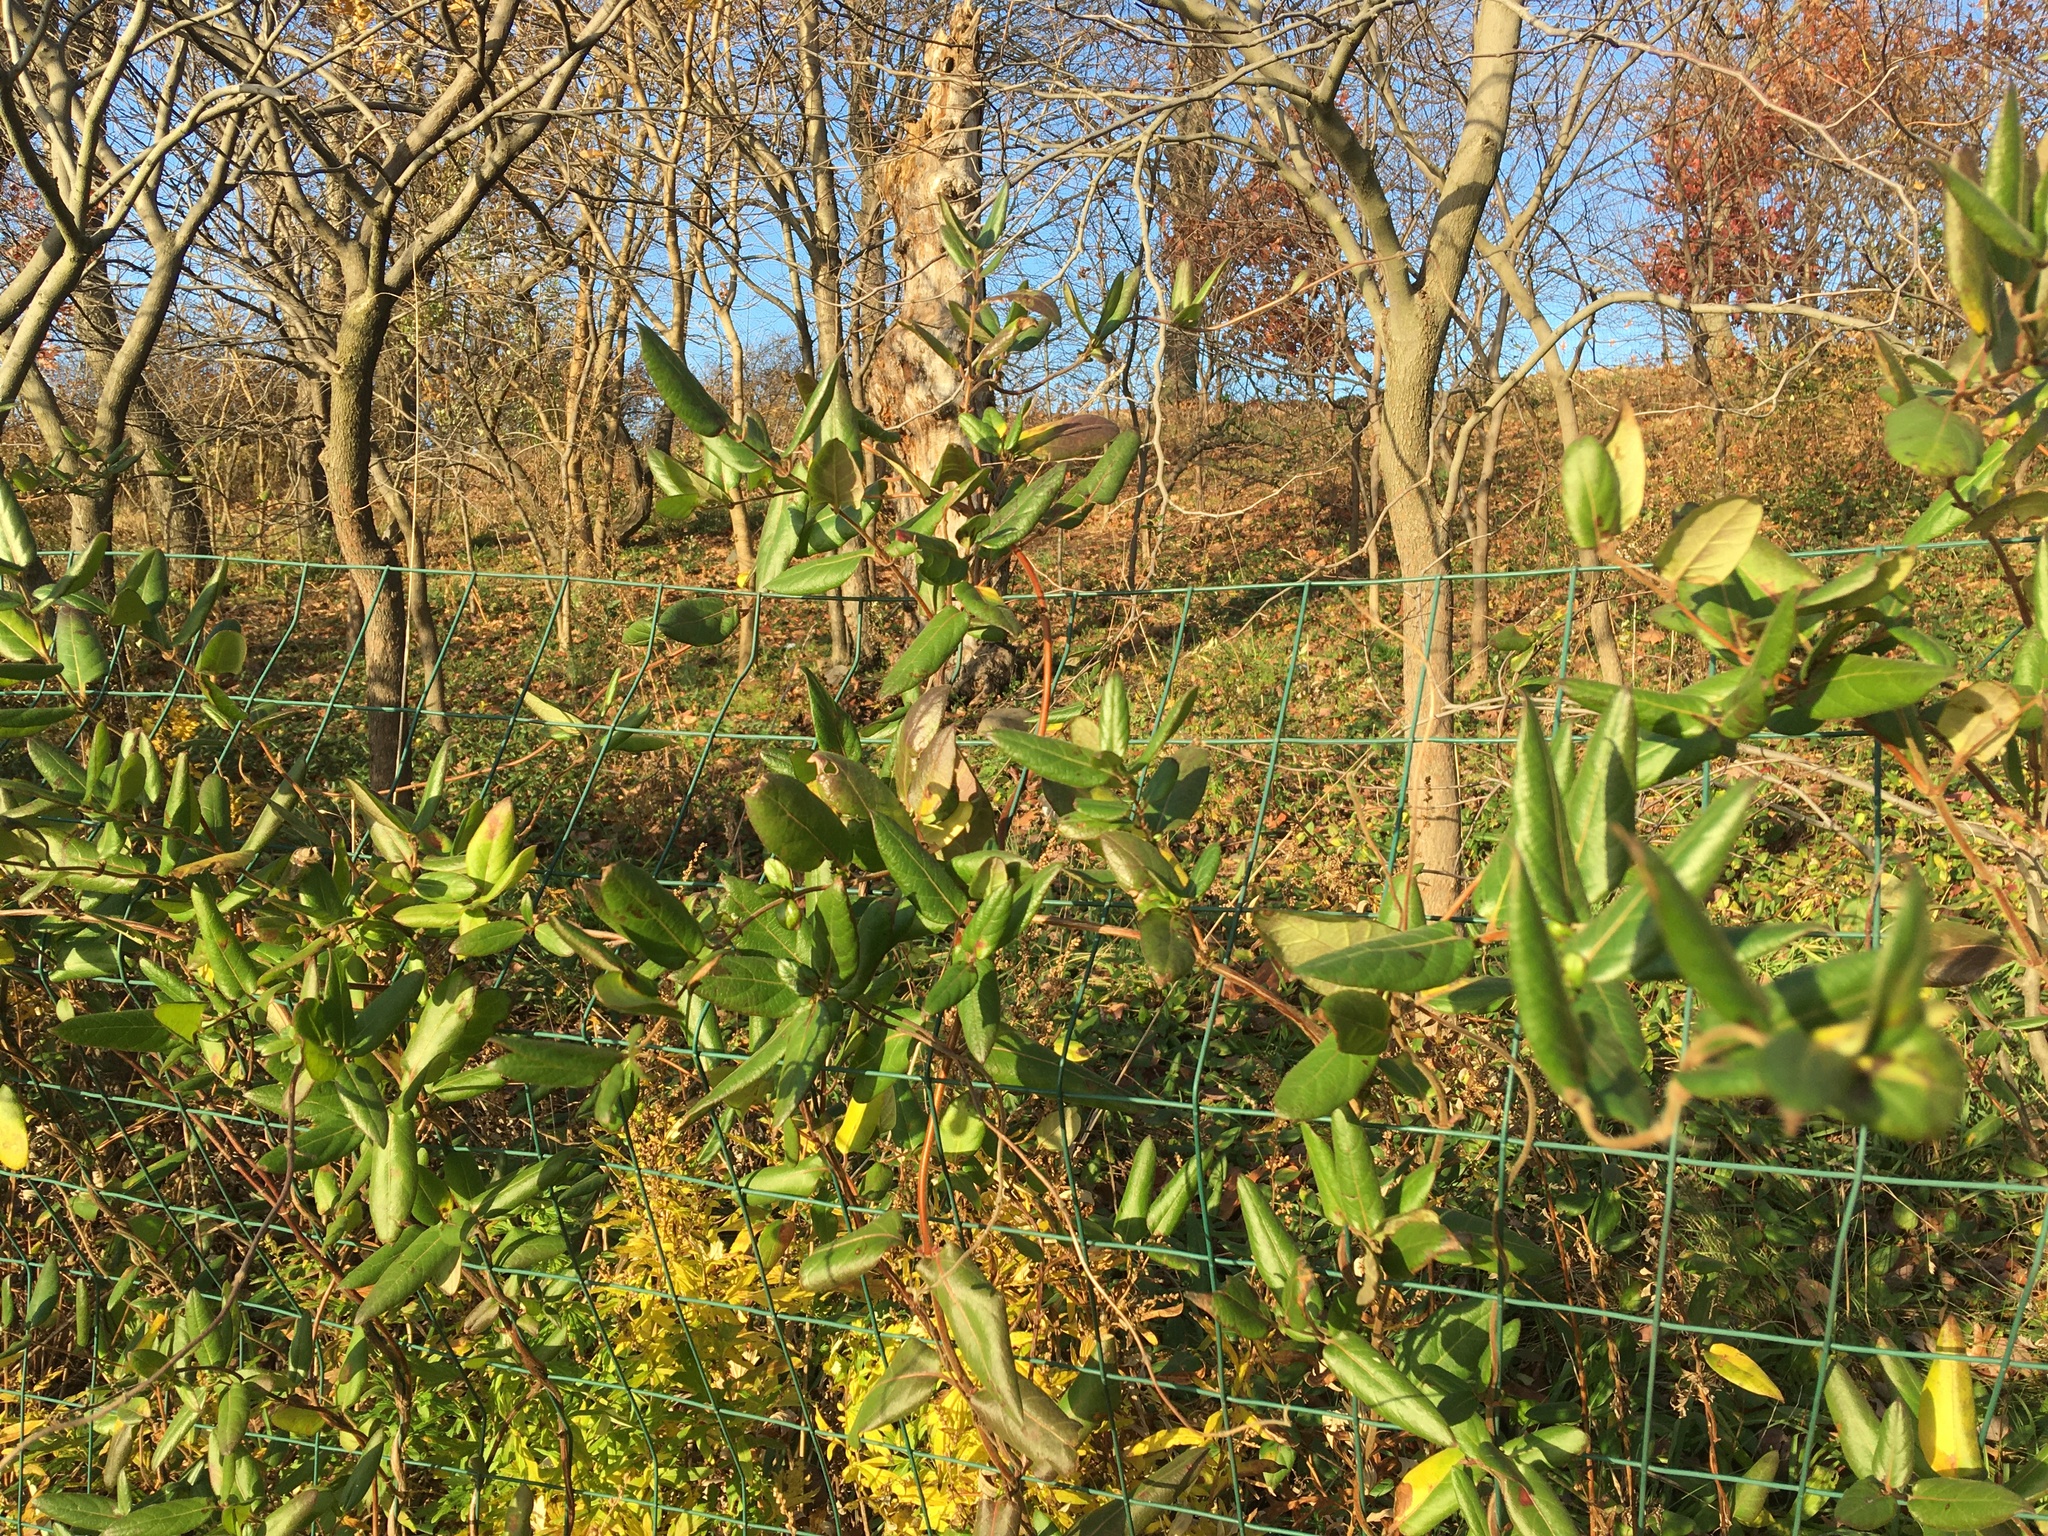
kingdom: Plantae
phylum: Tracheophyta
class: Magnoliopsida
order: Dipsacales
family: Caprifoliaceae
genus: Lonicera
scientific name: Lonicera japonica
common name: Japanese honeysuckle
